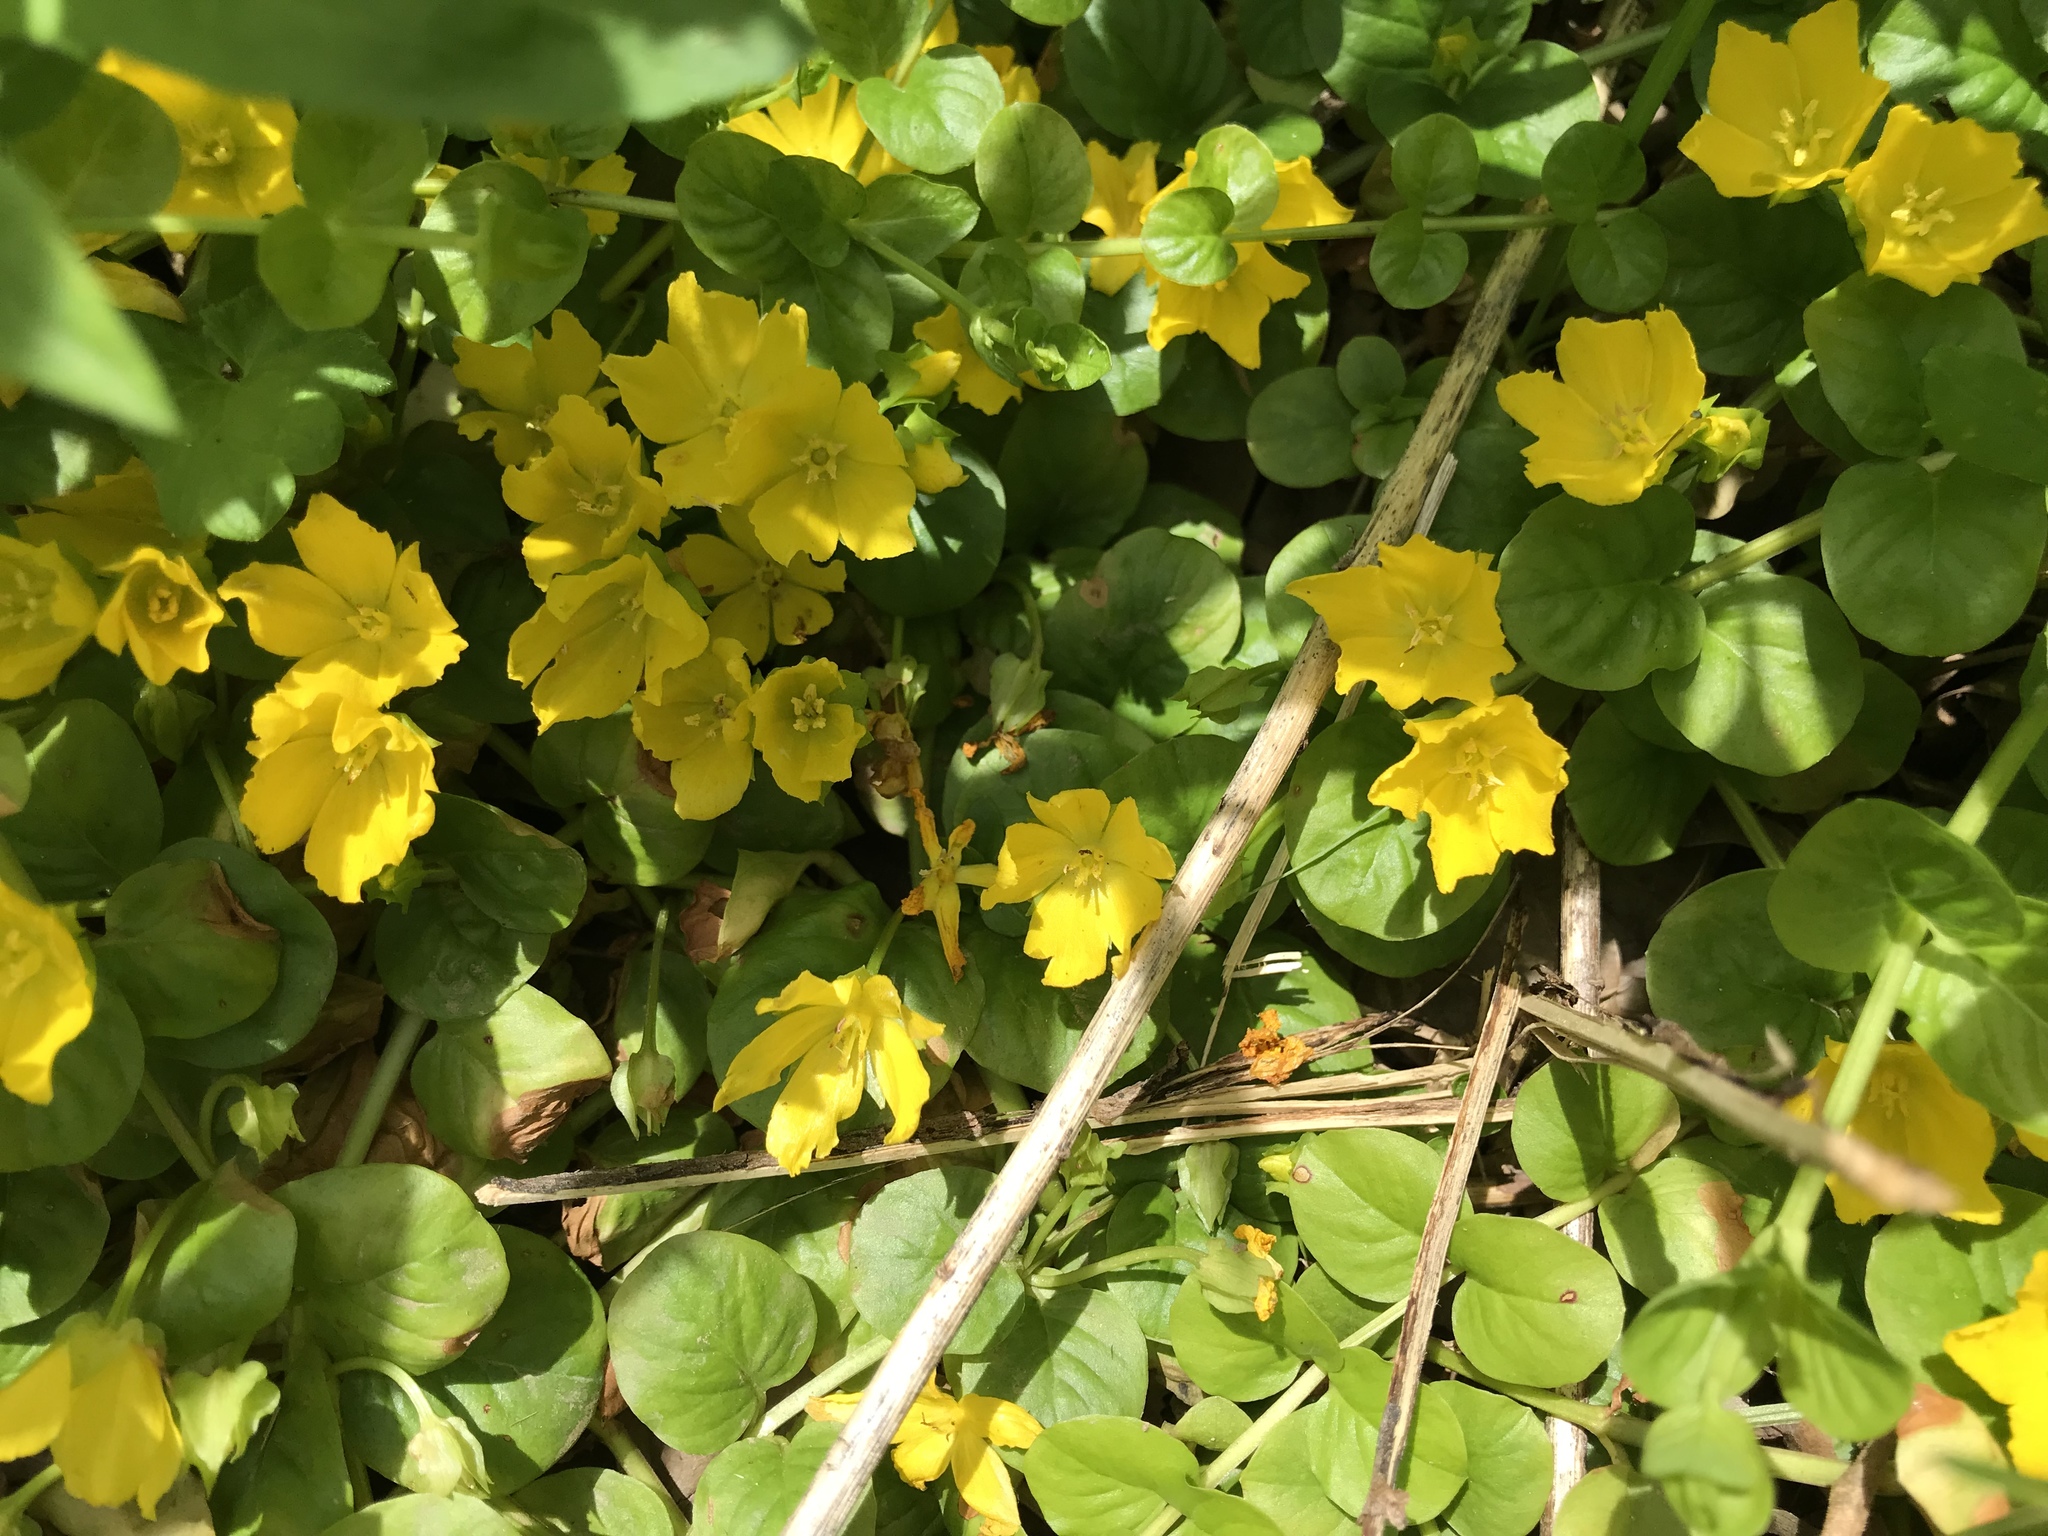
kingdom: Plantae
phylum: Tracheophyta
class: Magnoliopsida
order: Ericales
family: Primulaceae
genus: Lysimachia
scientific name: Lysimachia nummularia
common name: Moneywort
